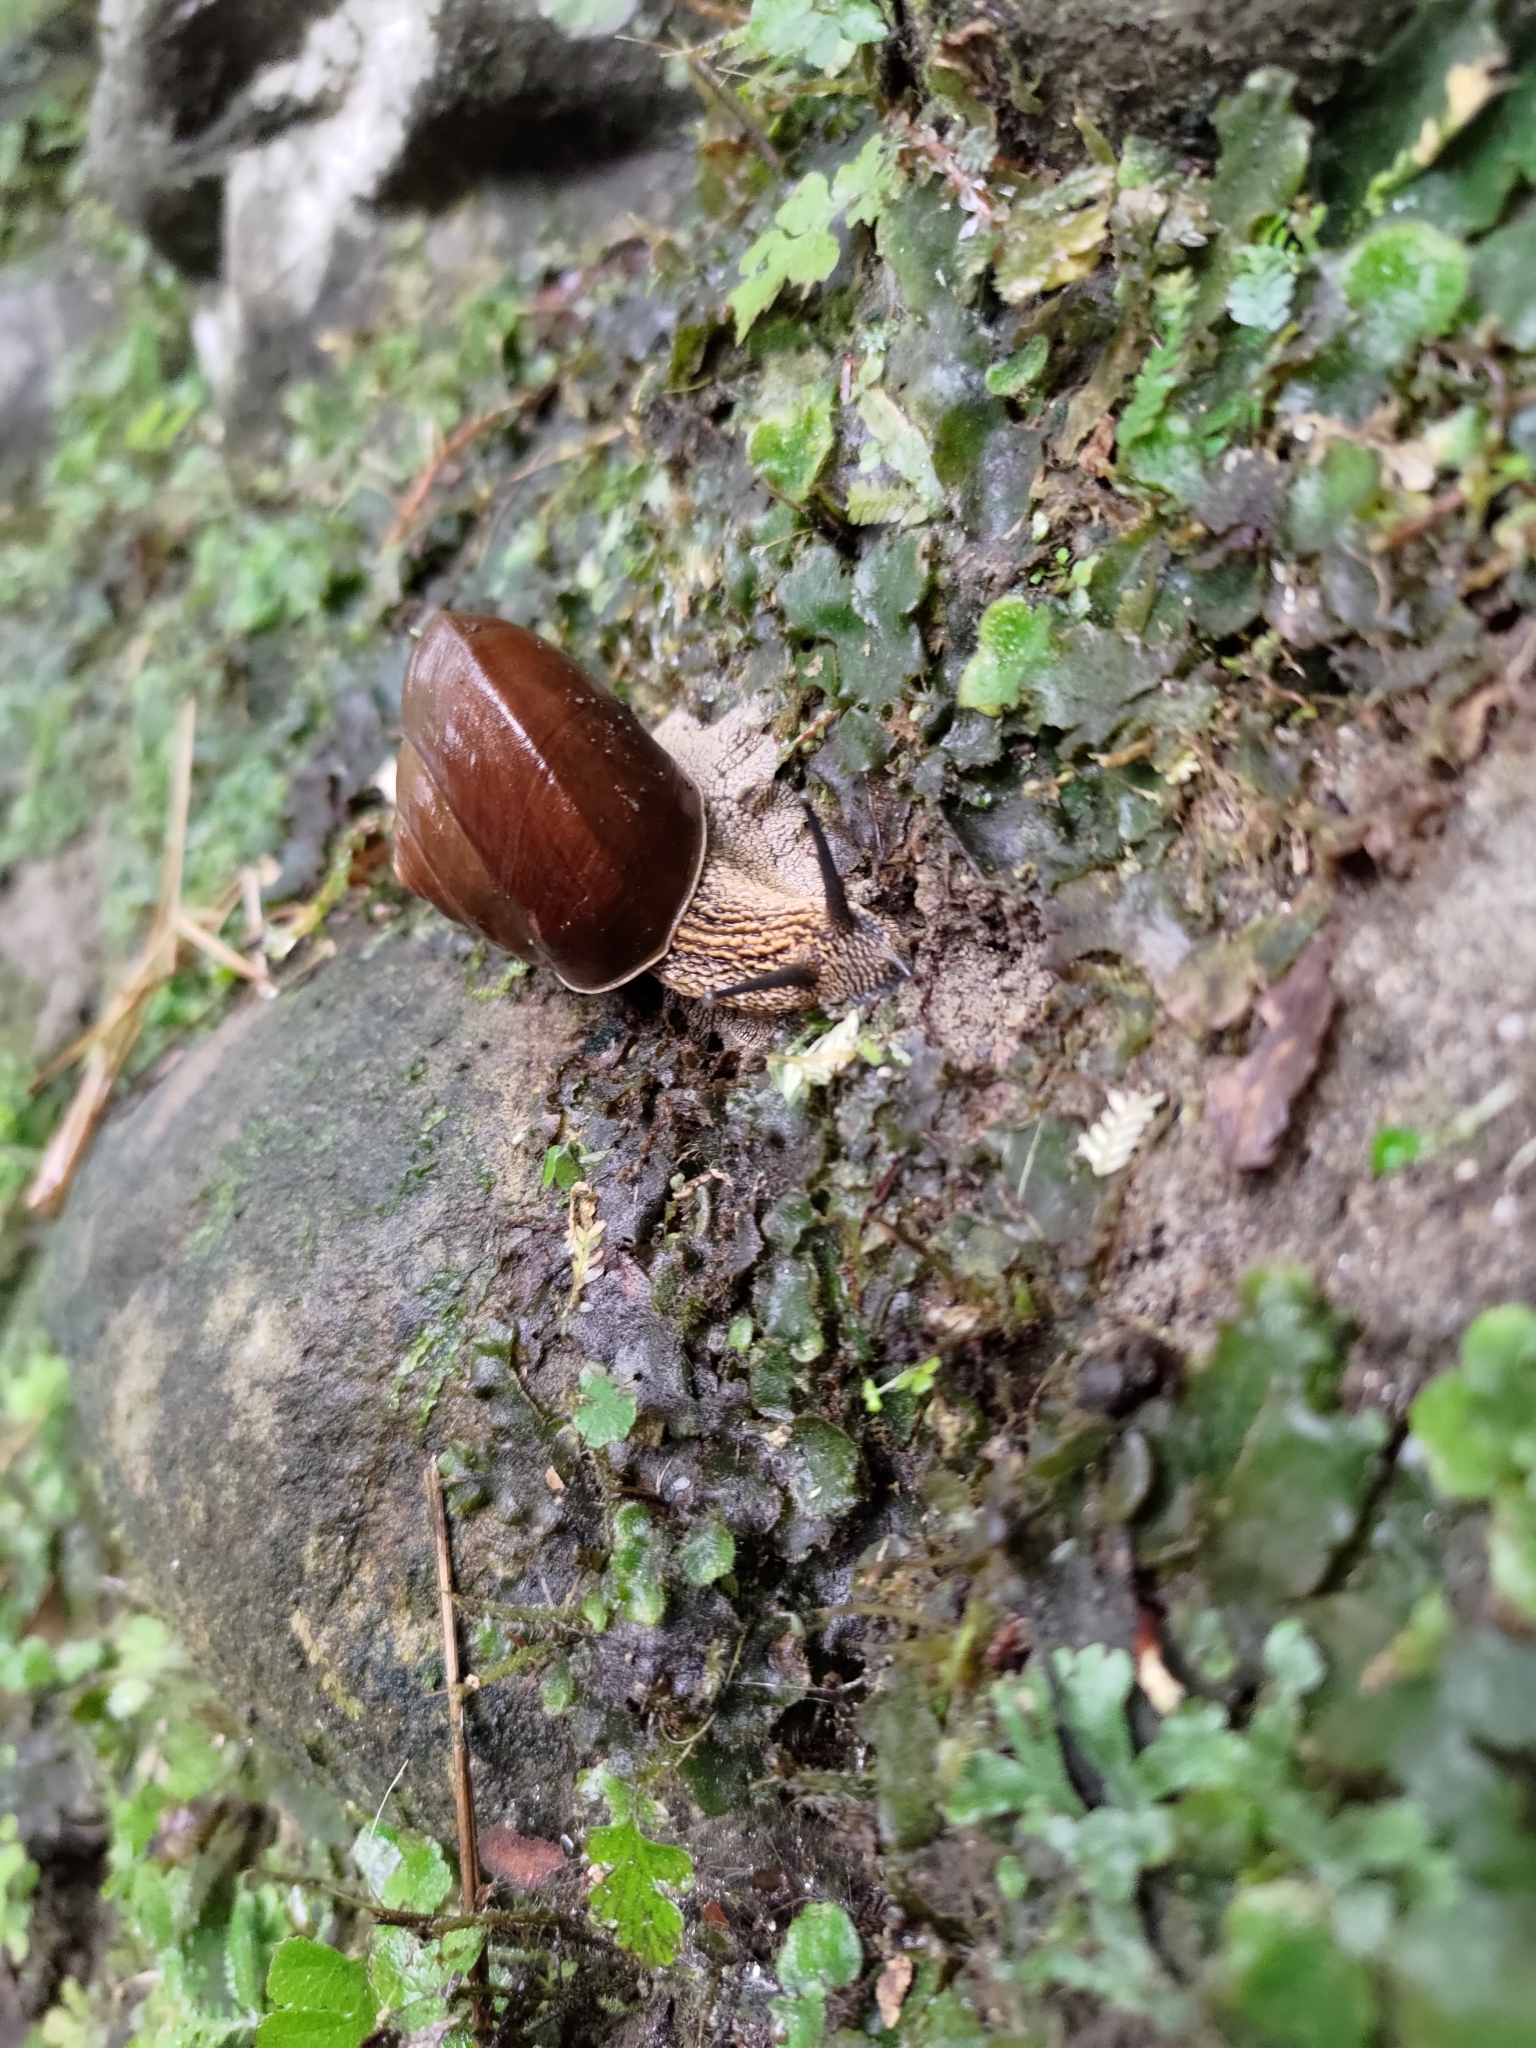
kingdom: Animalia
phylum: Mollusca
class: Gastropoda
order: Stylommatophora
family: Camaenidae
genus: Nesiohelix
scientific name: Nesiohelix swinhoei
